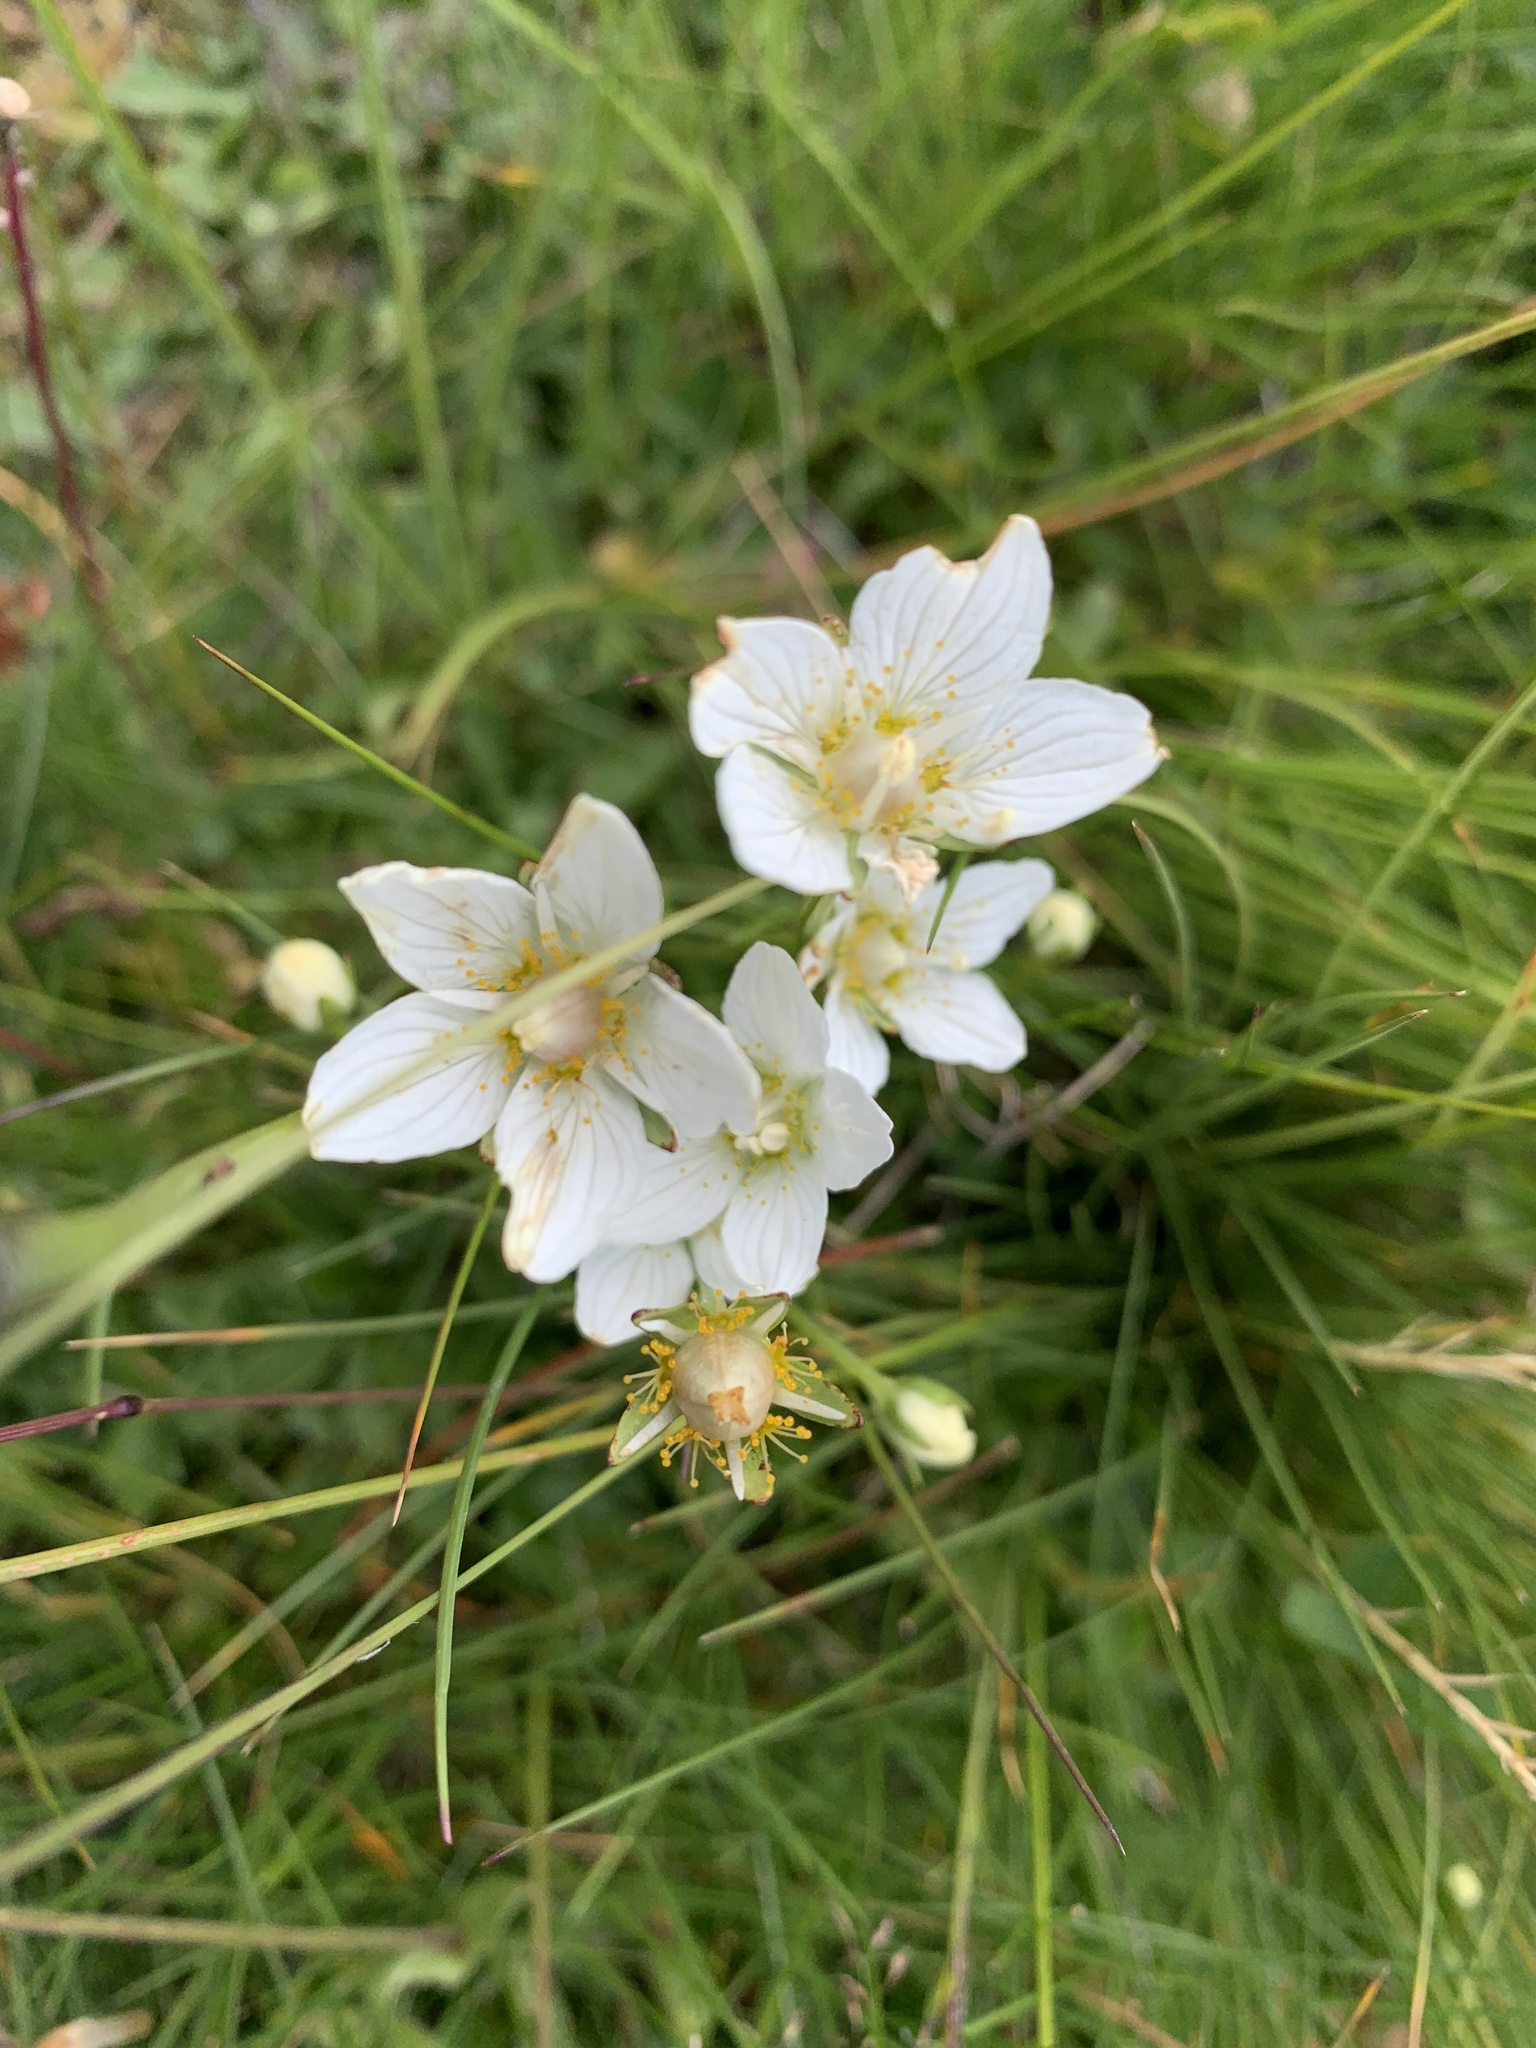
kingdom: Plantae
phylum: Tracheophyta
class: Magnoliopsida
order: Celastrales
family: Parnassiaceae
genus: Parnassia
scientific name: Parnassia palustris
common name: Grass-of-parnassus
